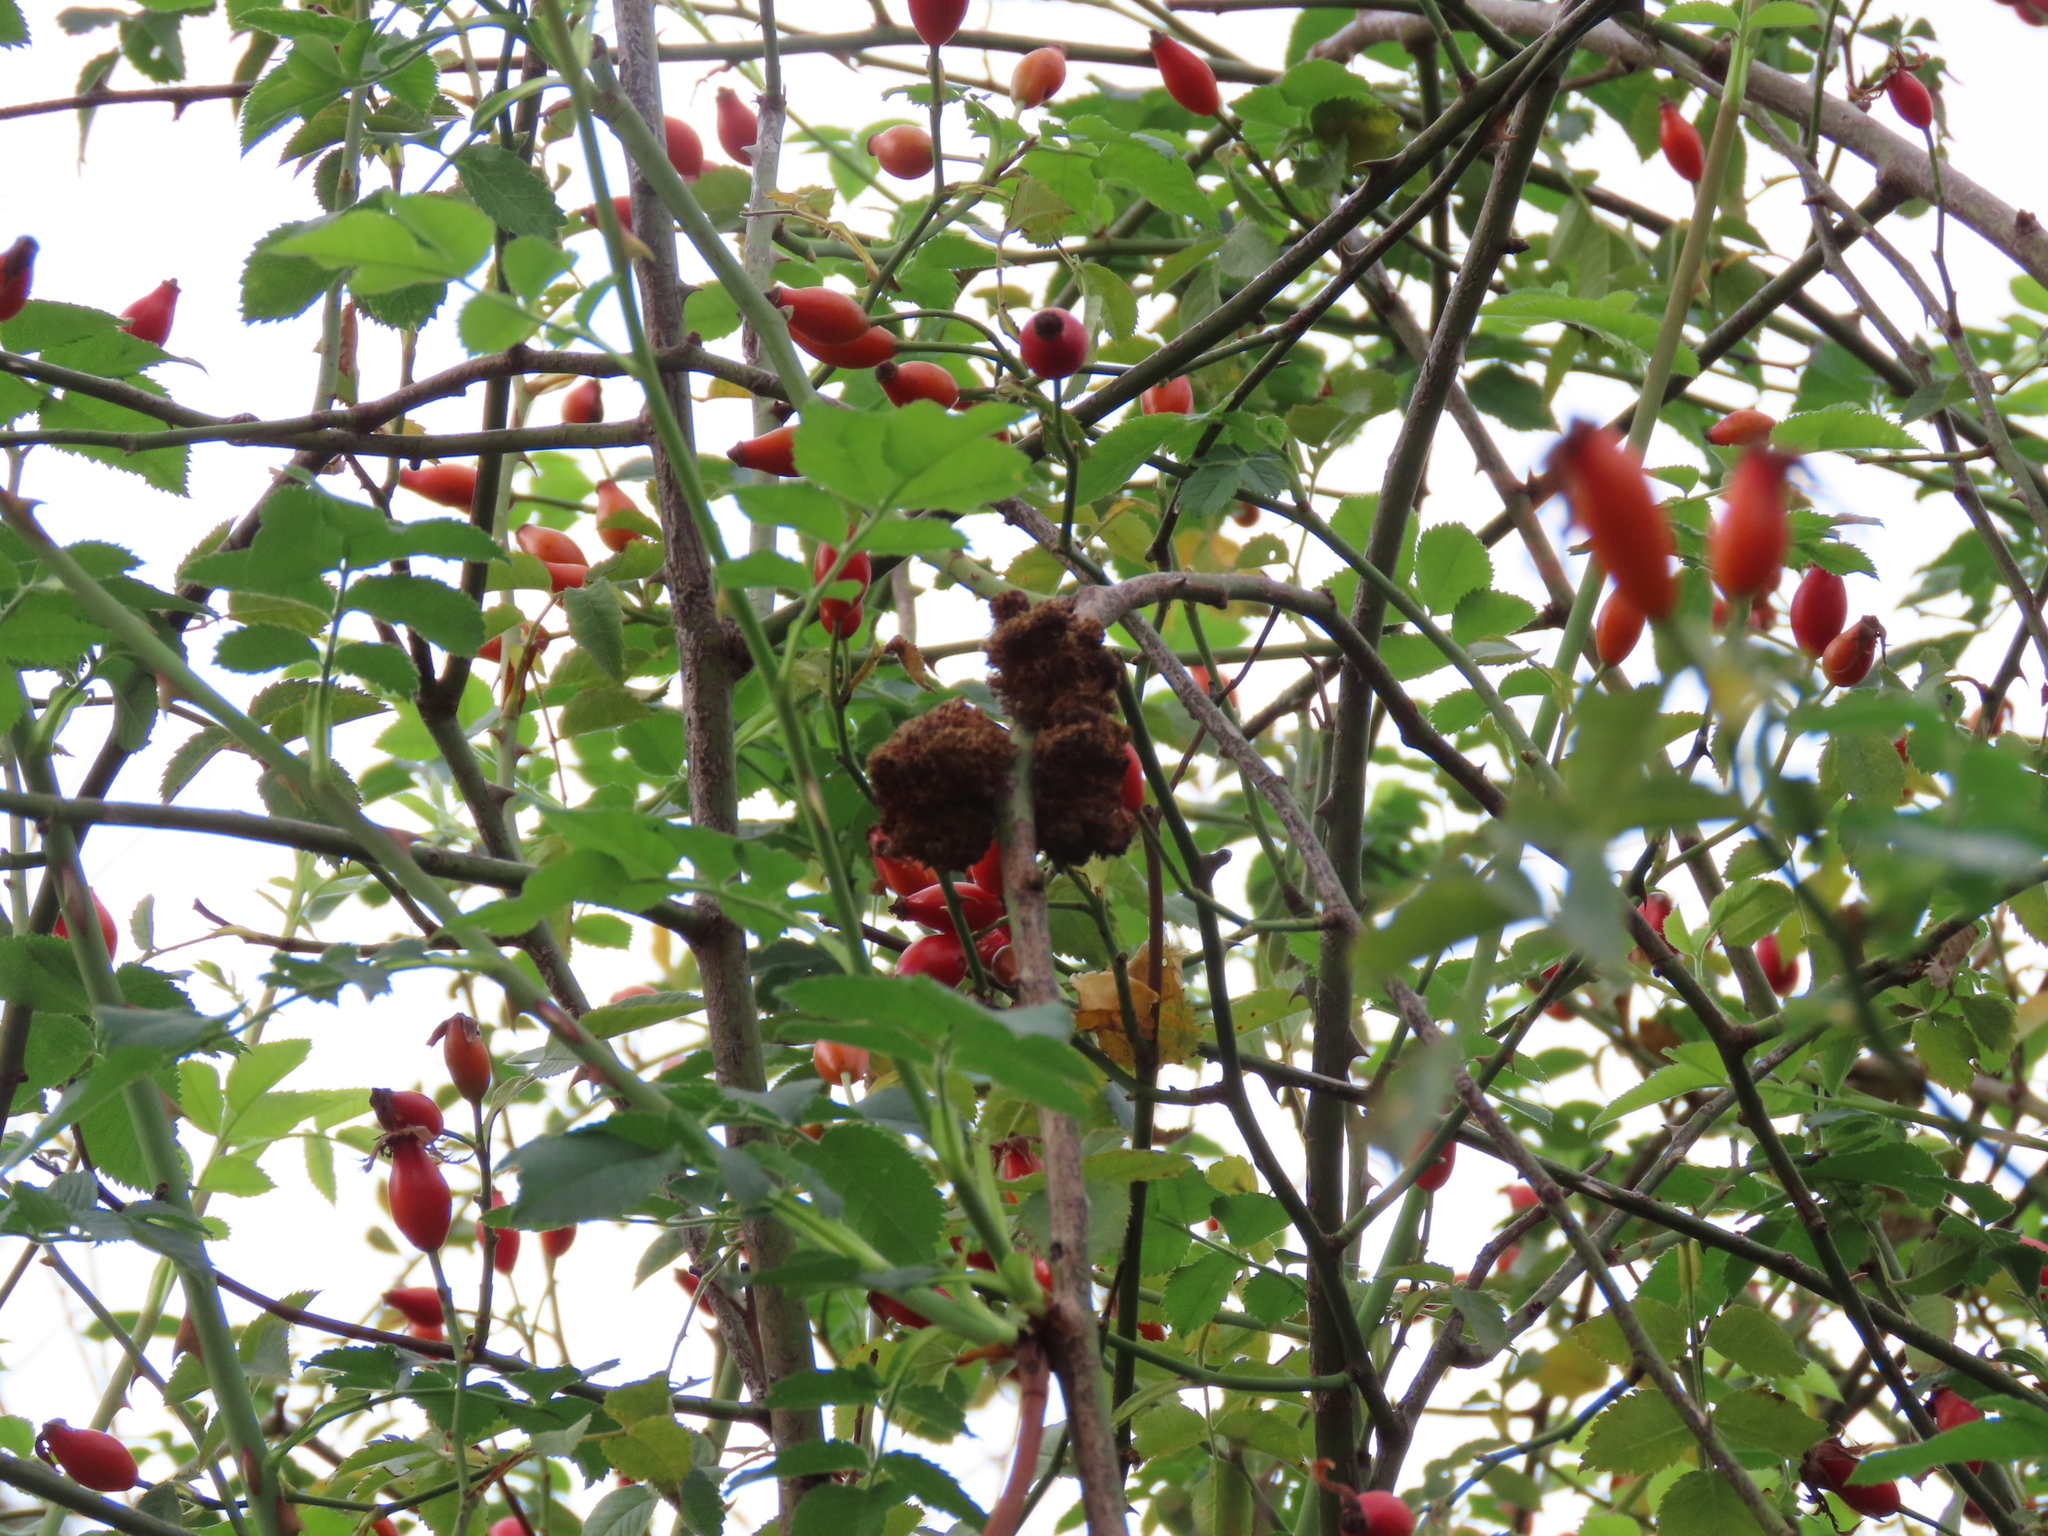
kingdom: Animalia
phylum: Arthropoda
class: Insecta
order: Hymenoptera
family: Cynipidae
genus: Diplolepis
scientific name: Diplolepis rosae
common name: Bedeguar gall
